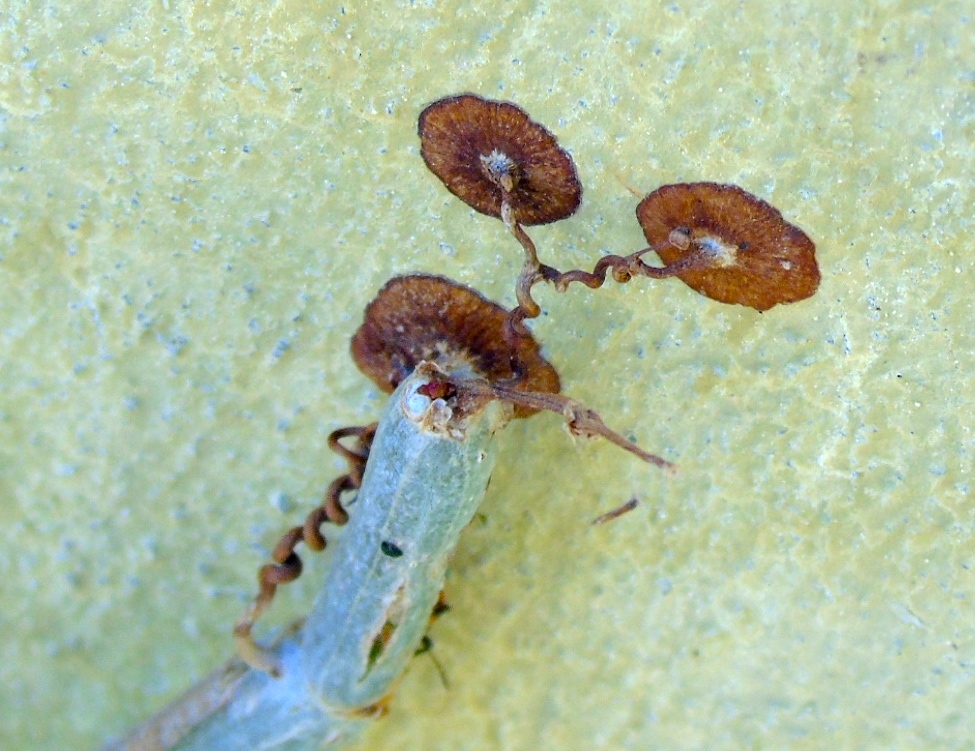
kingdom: Plantae
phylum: Tracheophyta
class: Magnoliopsida
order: Vitales
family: Vitaceae
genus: Cissus
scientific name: Cissus alata
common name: Venezuela treebind
